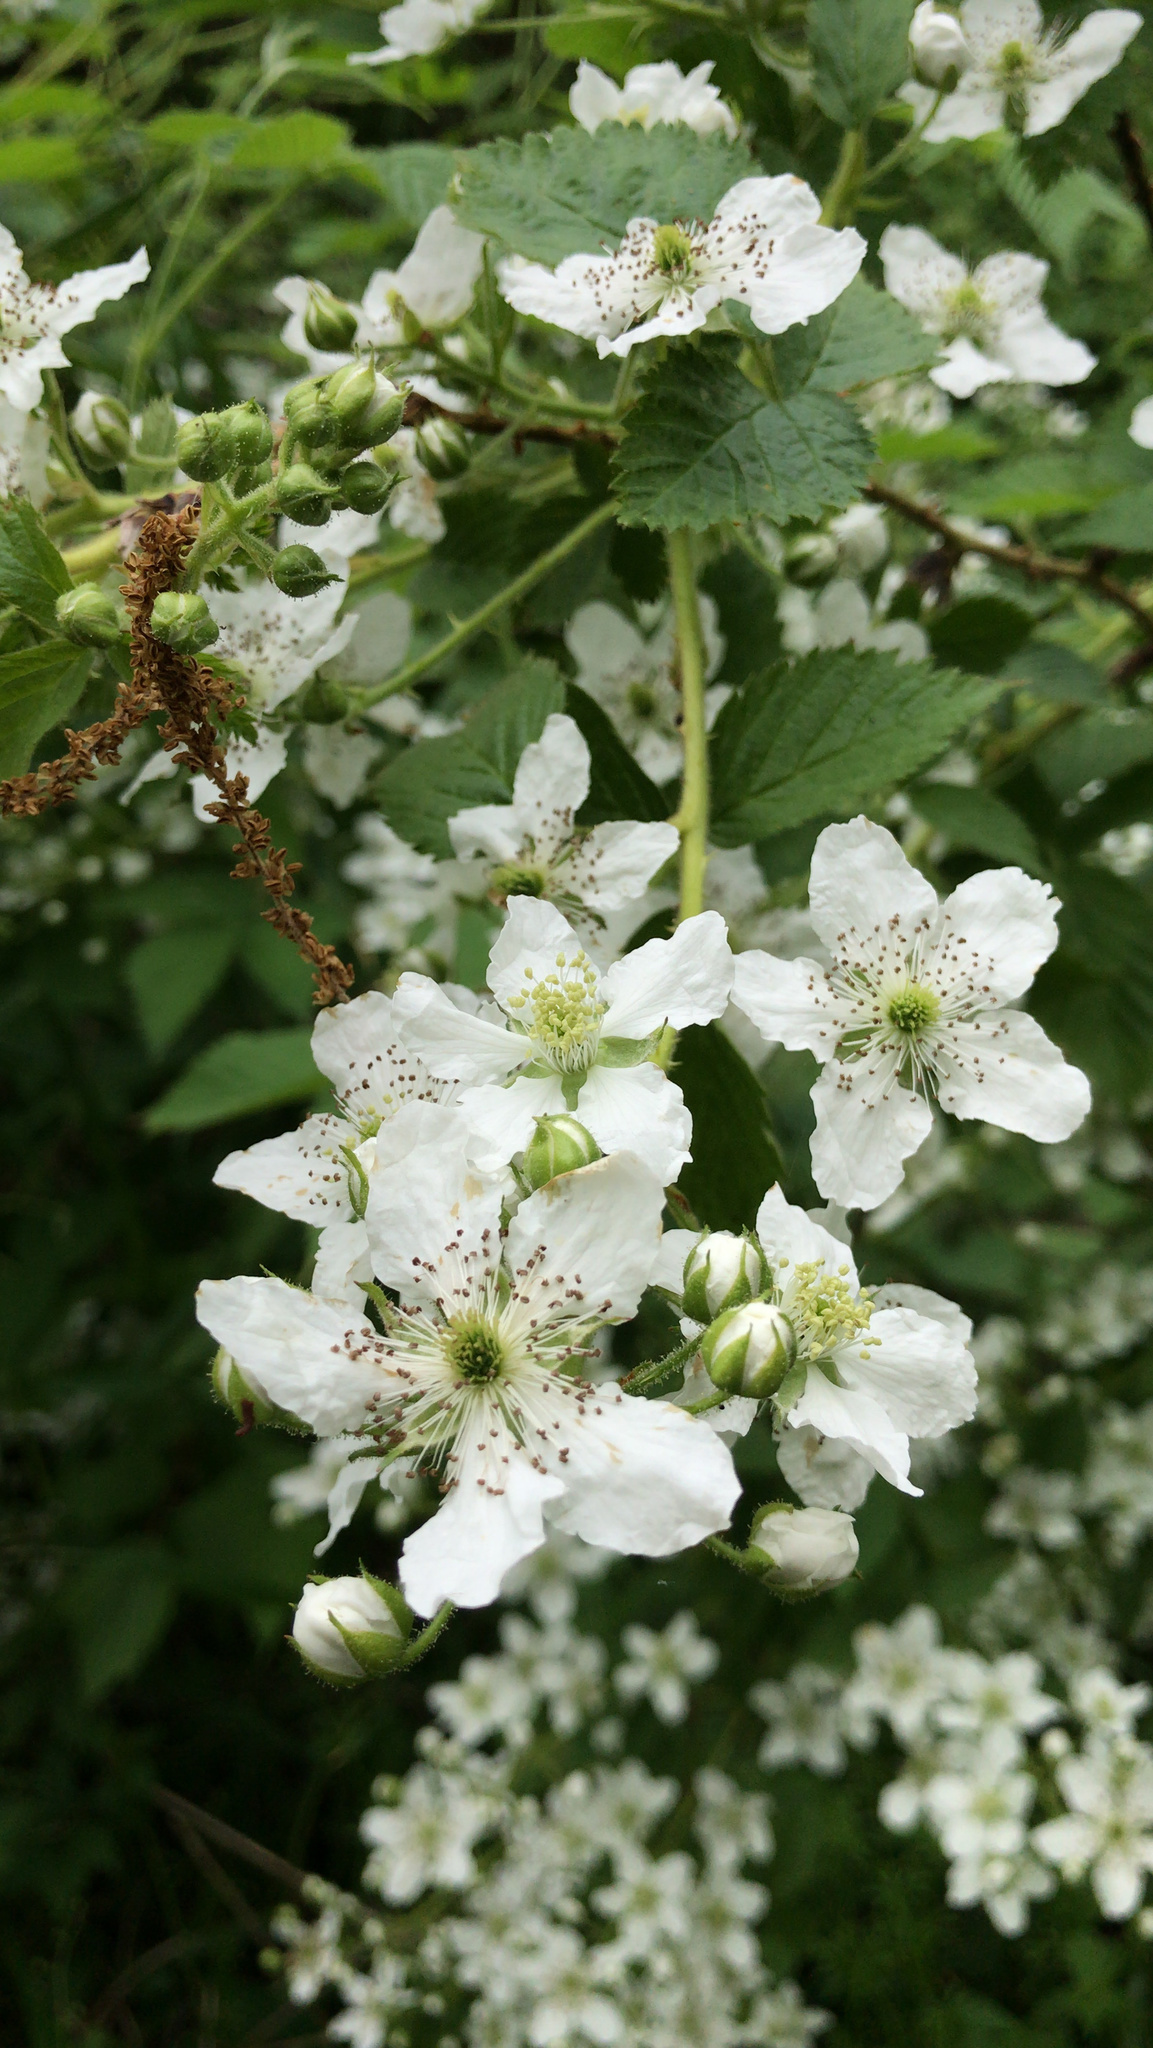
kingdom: Plantae
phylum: Tracheophyta
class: Magnoliopsida
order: Rosales
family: Rosaceae
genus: Rubus
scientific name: Rubus allegheniensis
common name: Allegheny blackberry
